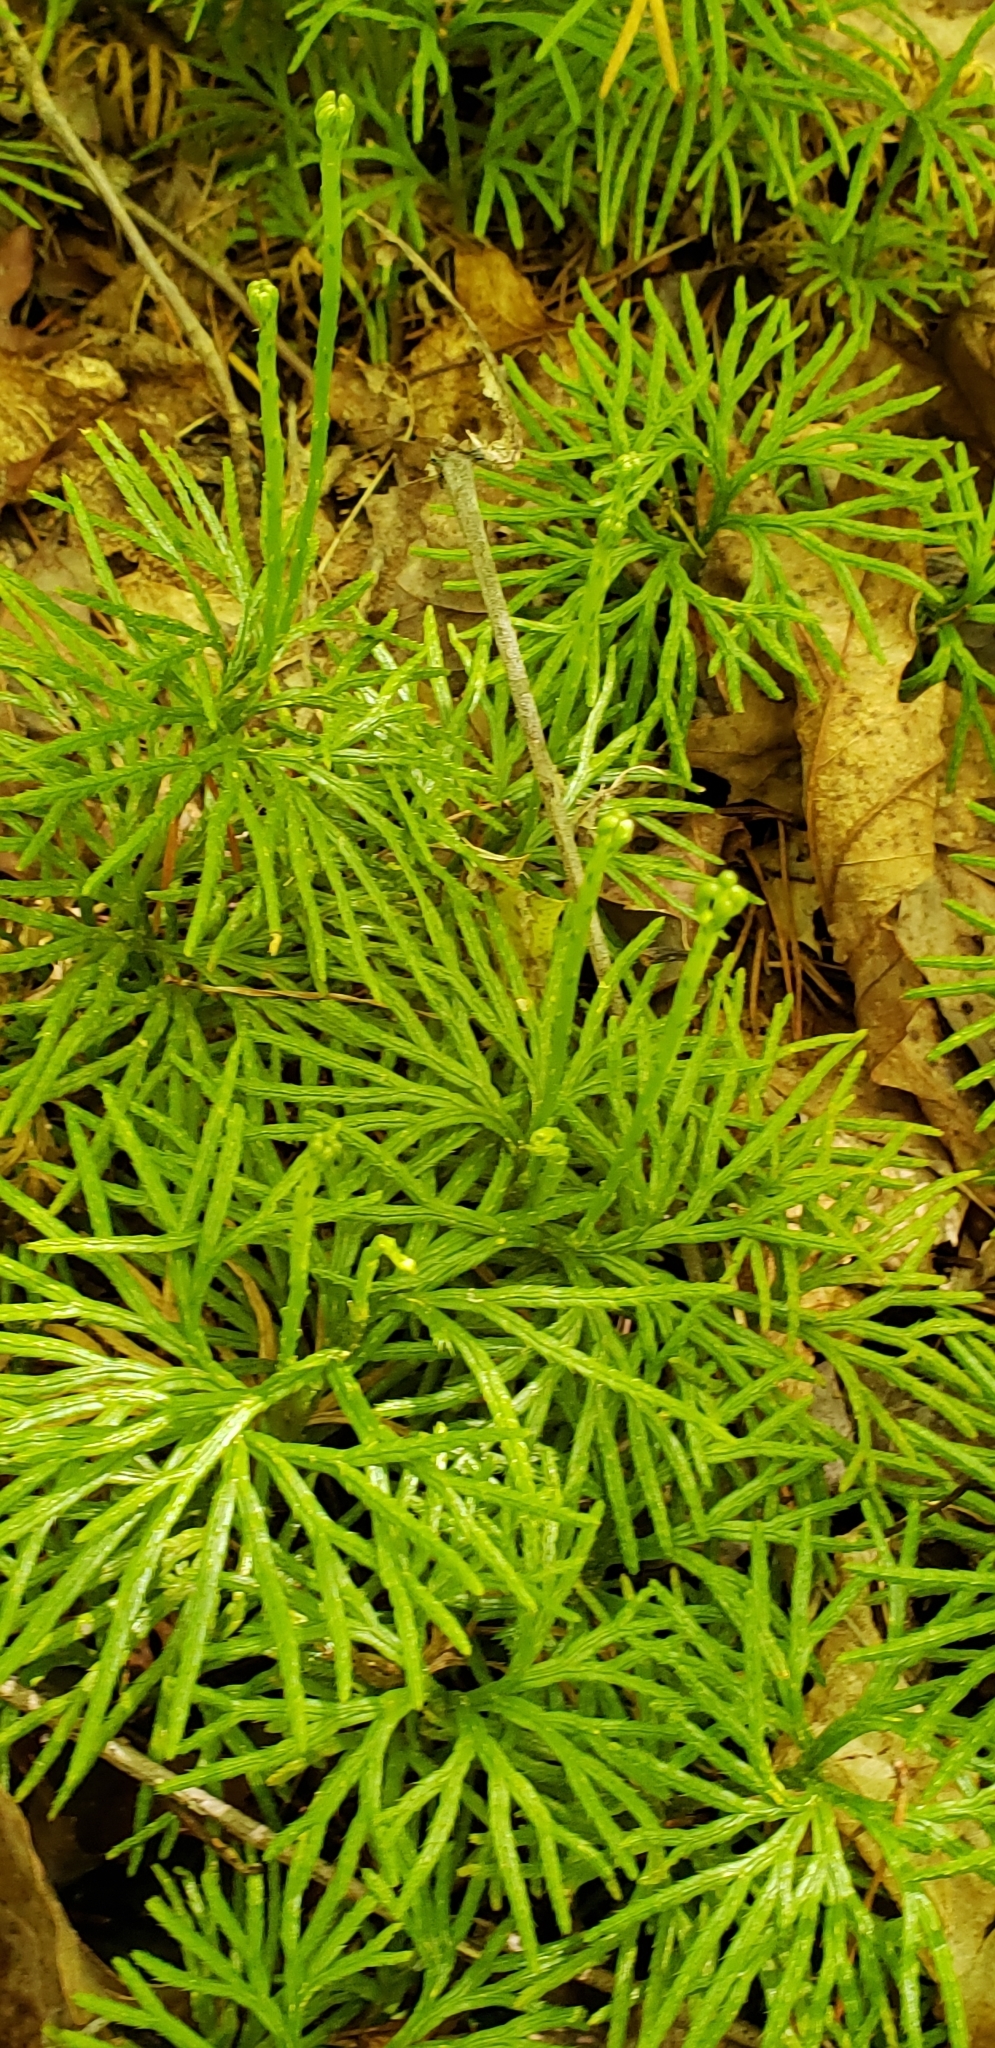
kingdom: Plantae
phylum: Tracheophyta
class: Lycopodiopsida
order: Lycopodiales
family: Lycopodiaceae
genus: Diphasiastrum
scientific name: Diphasiastrum digitatum
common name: Southern running-pine
